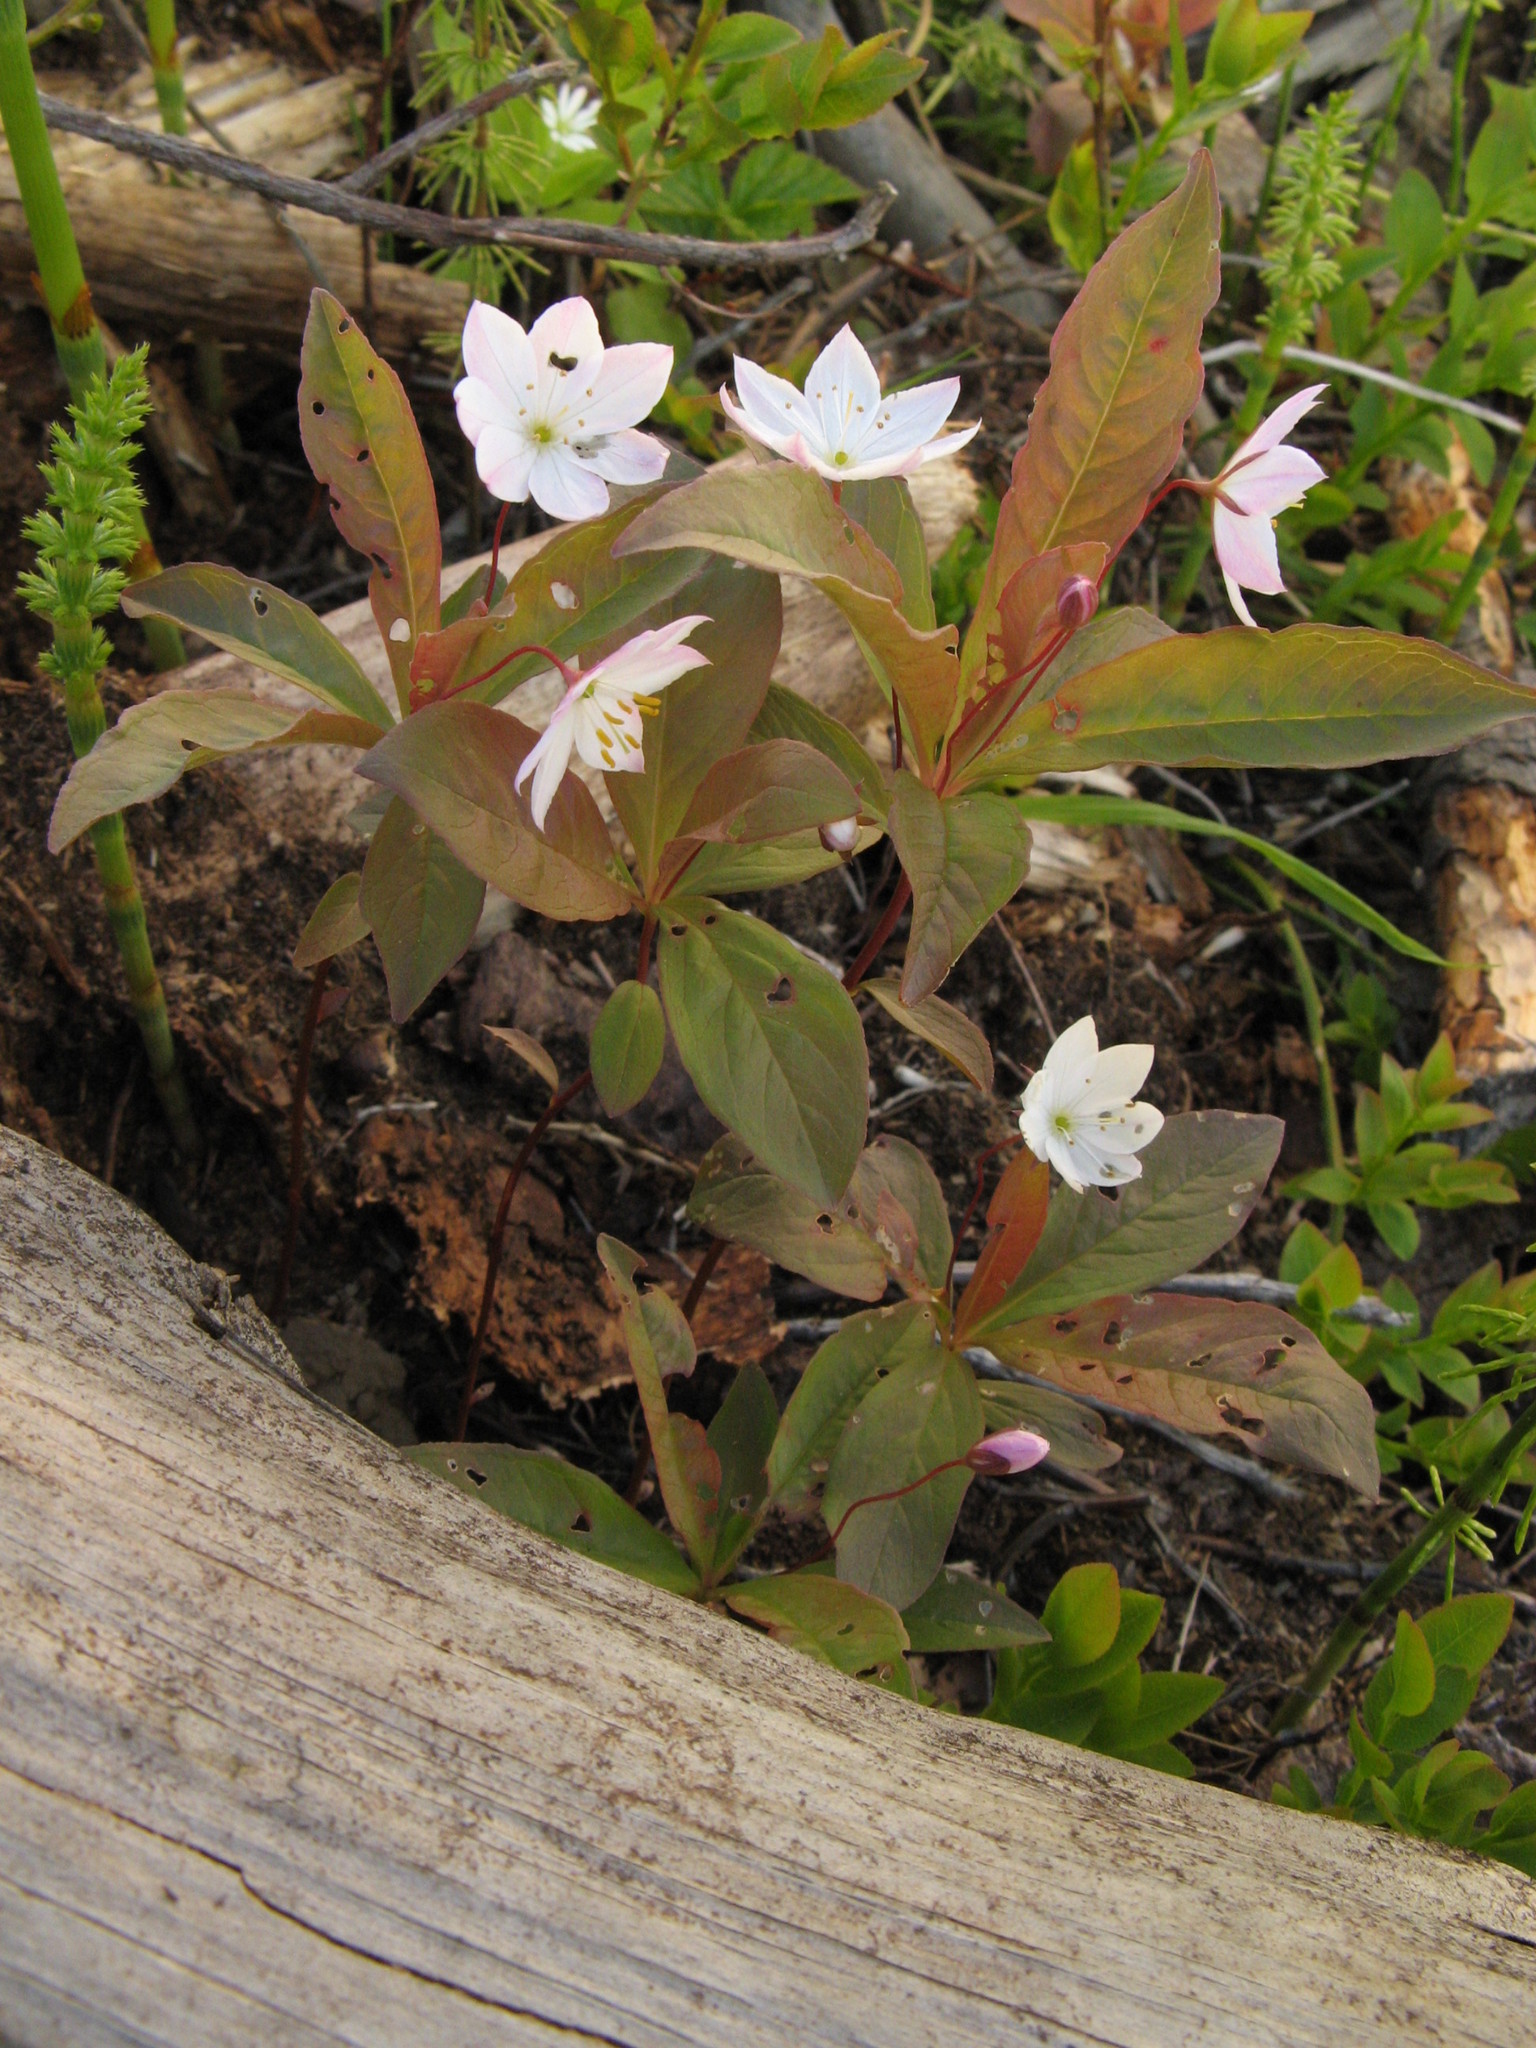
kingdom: Plantae
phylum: Tracheophyta
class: Magnoliopsida
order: Ericales
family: Primulaceae
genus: Lysimachia
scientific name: Lysimachia europaea
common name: Arctic starflower
